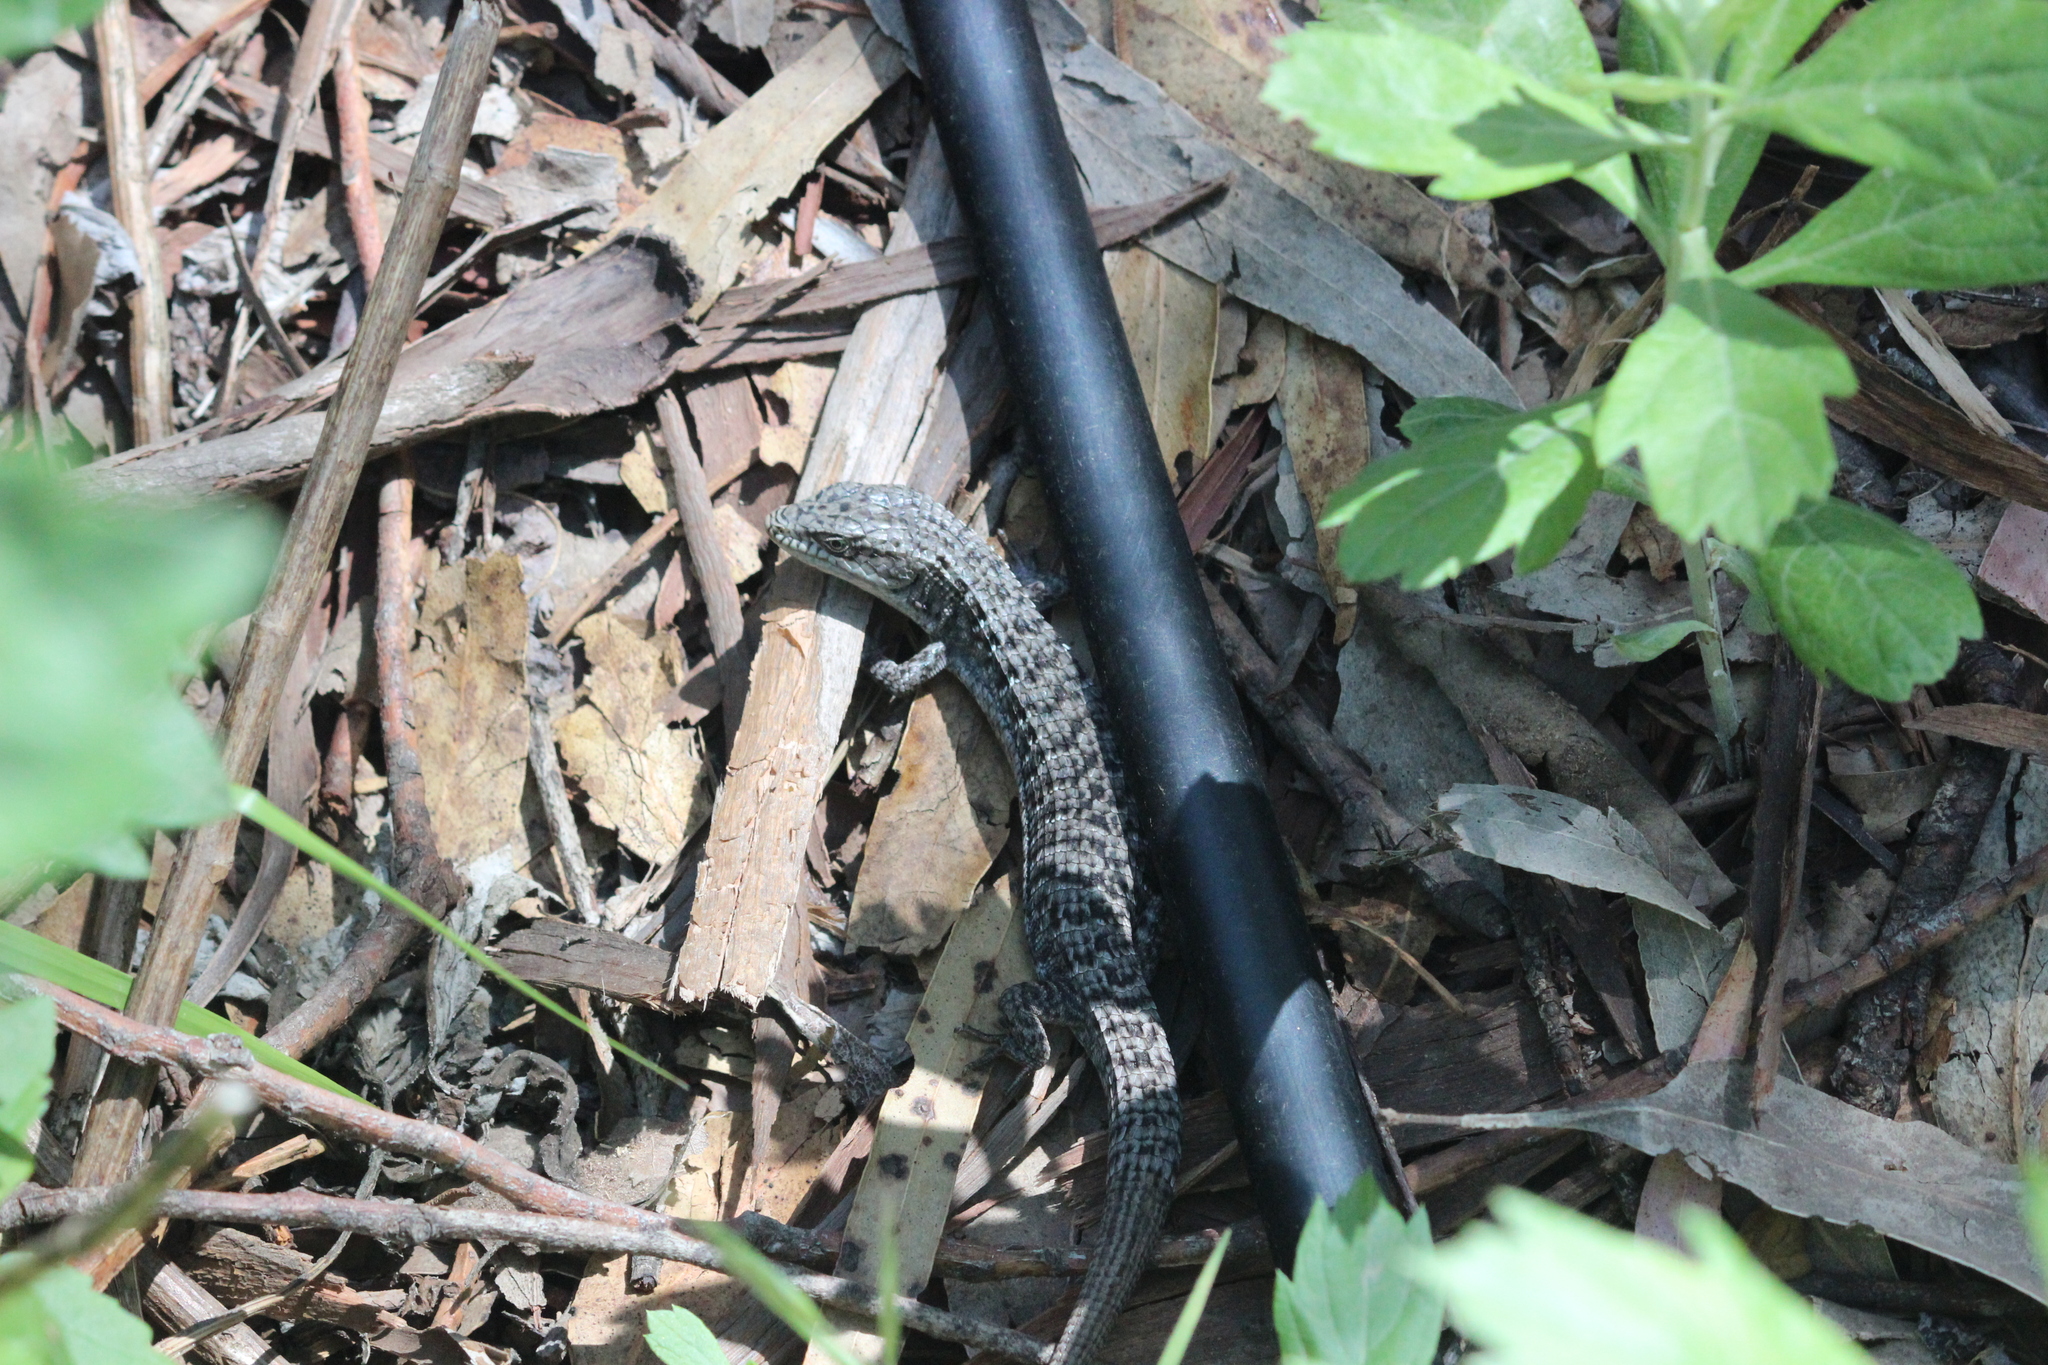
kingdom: Animalia
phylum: Chordata
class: Squamata
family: Anguidae
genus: Elgaria
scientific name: Elgaria multicarinata
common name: Southern alligator lizard
